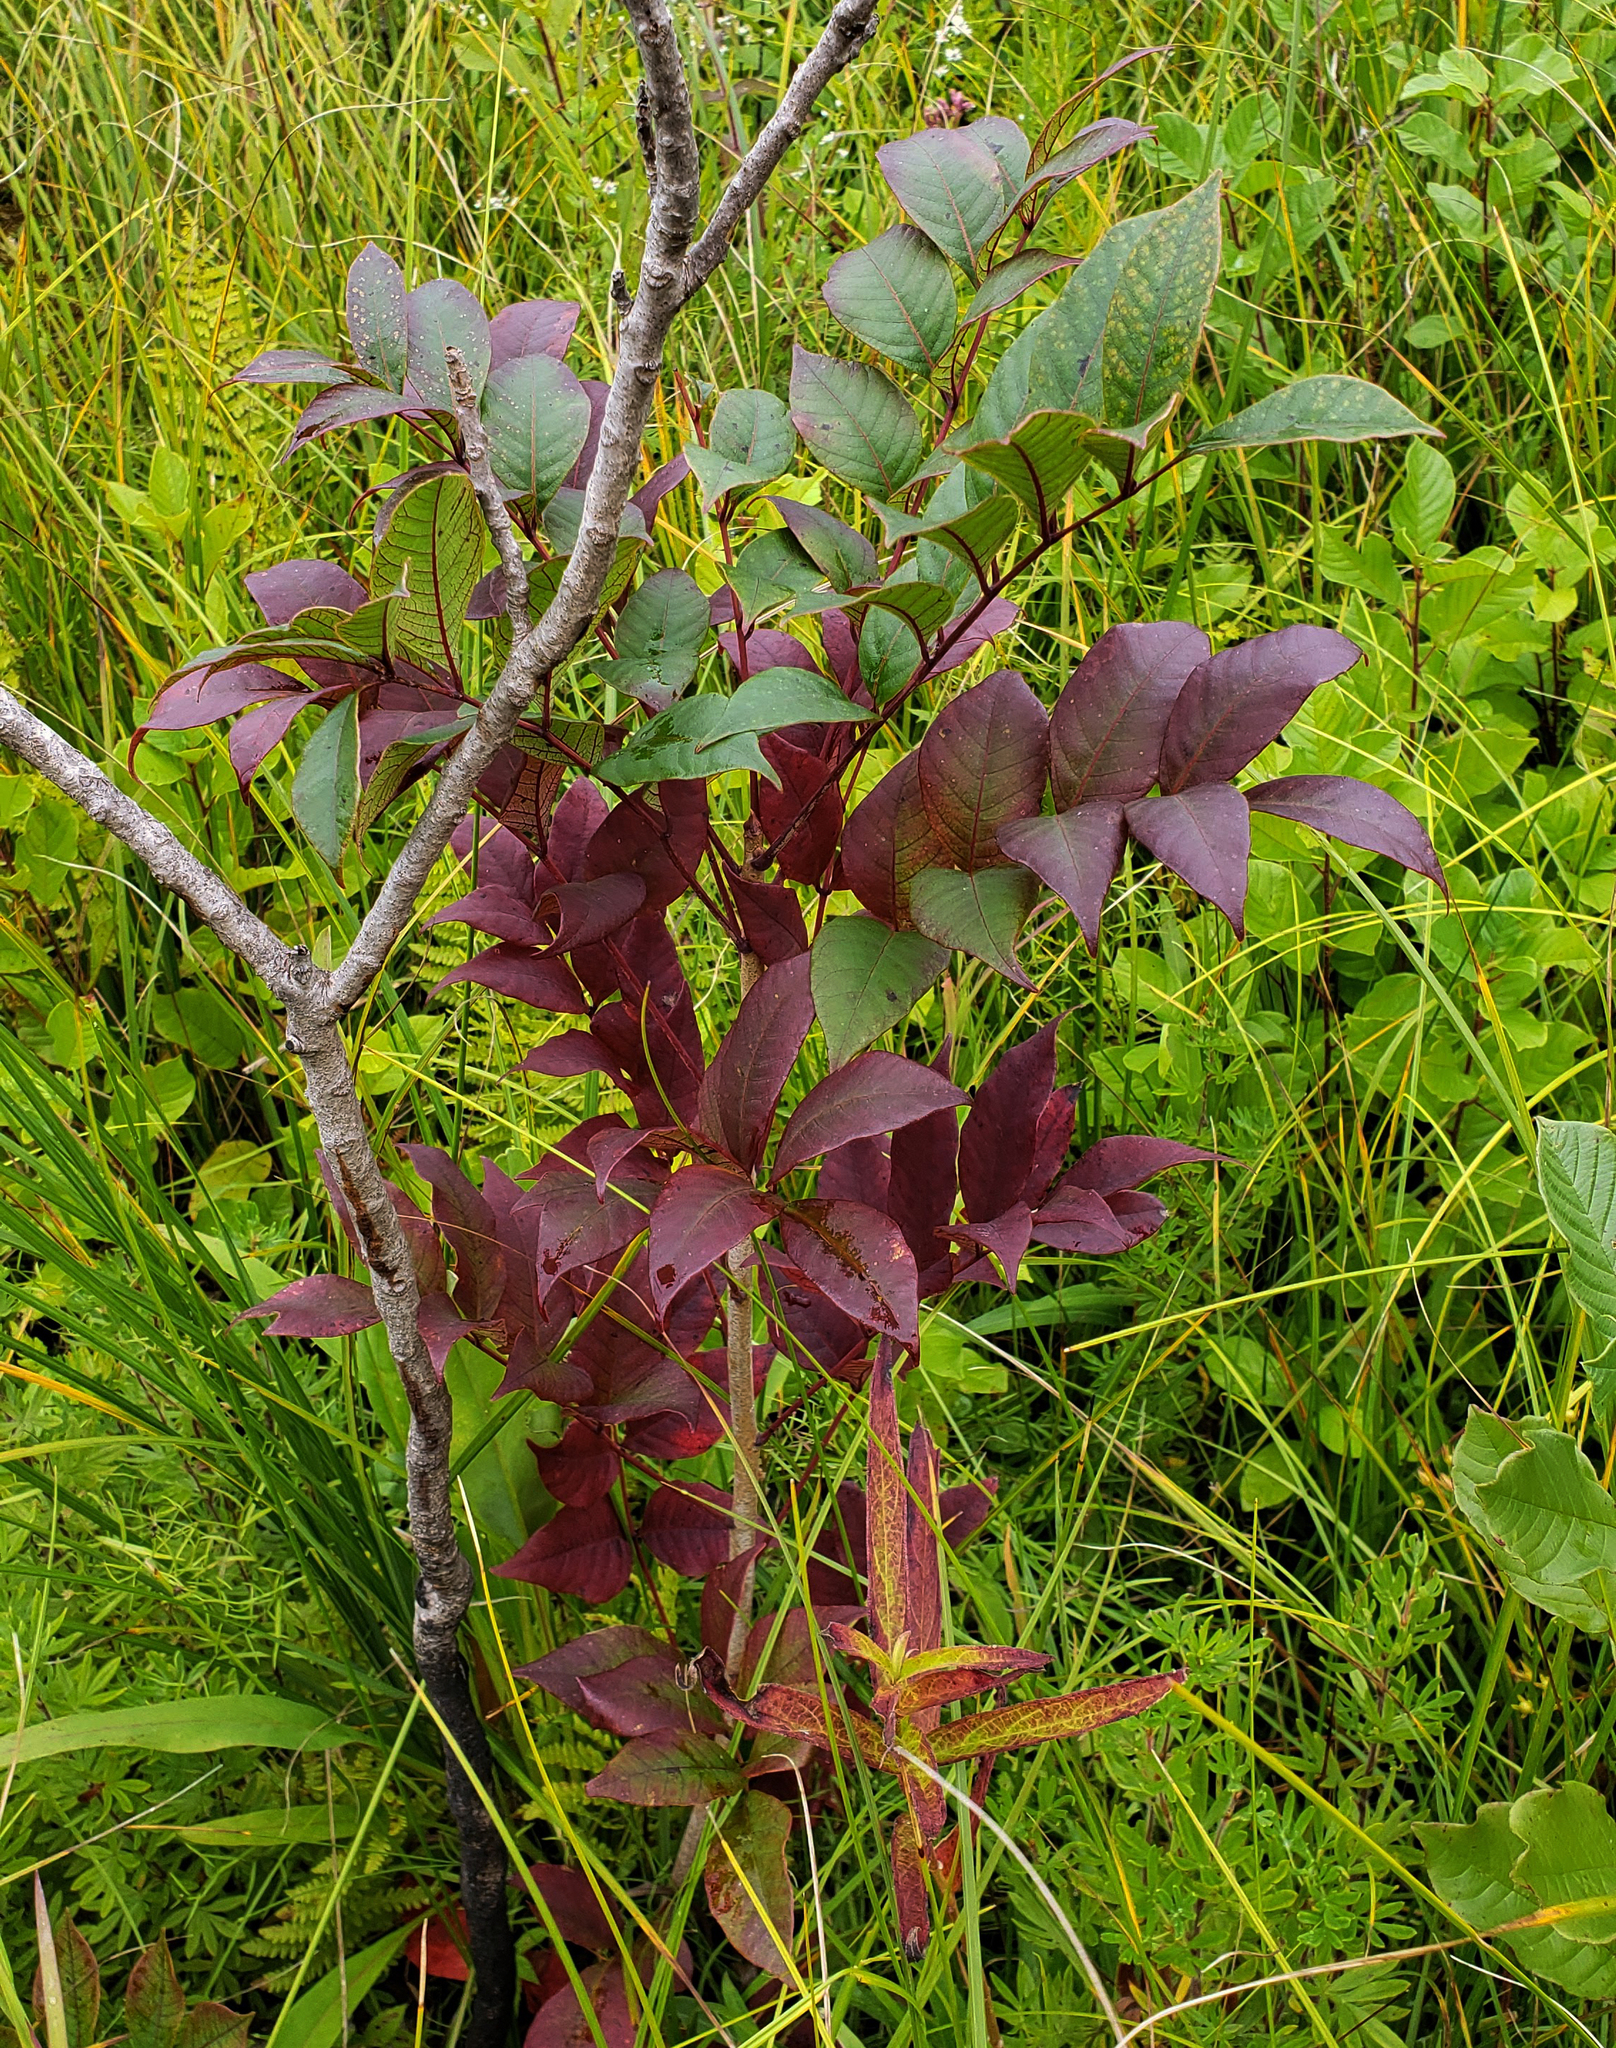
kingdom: Plantae
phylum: Tracheophyta
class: Magnoliopsida
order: Sapindales
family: Anacardiaceae
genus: Toxicodendron
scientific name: Toxicodendron vernix
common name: Poison sumac
